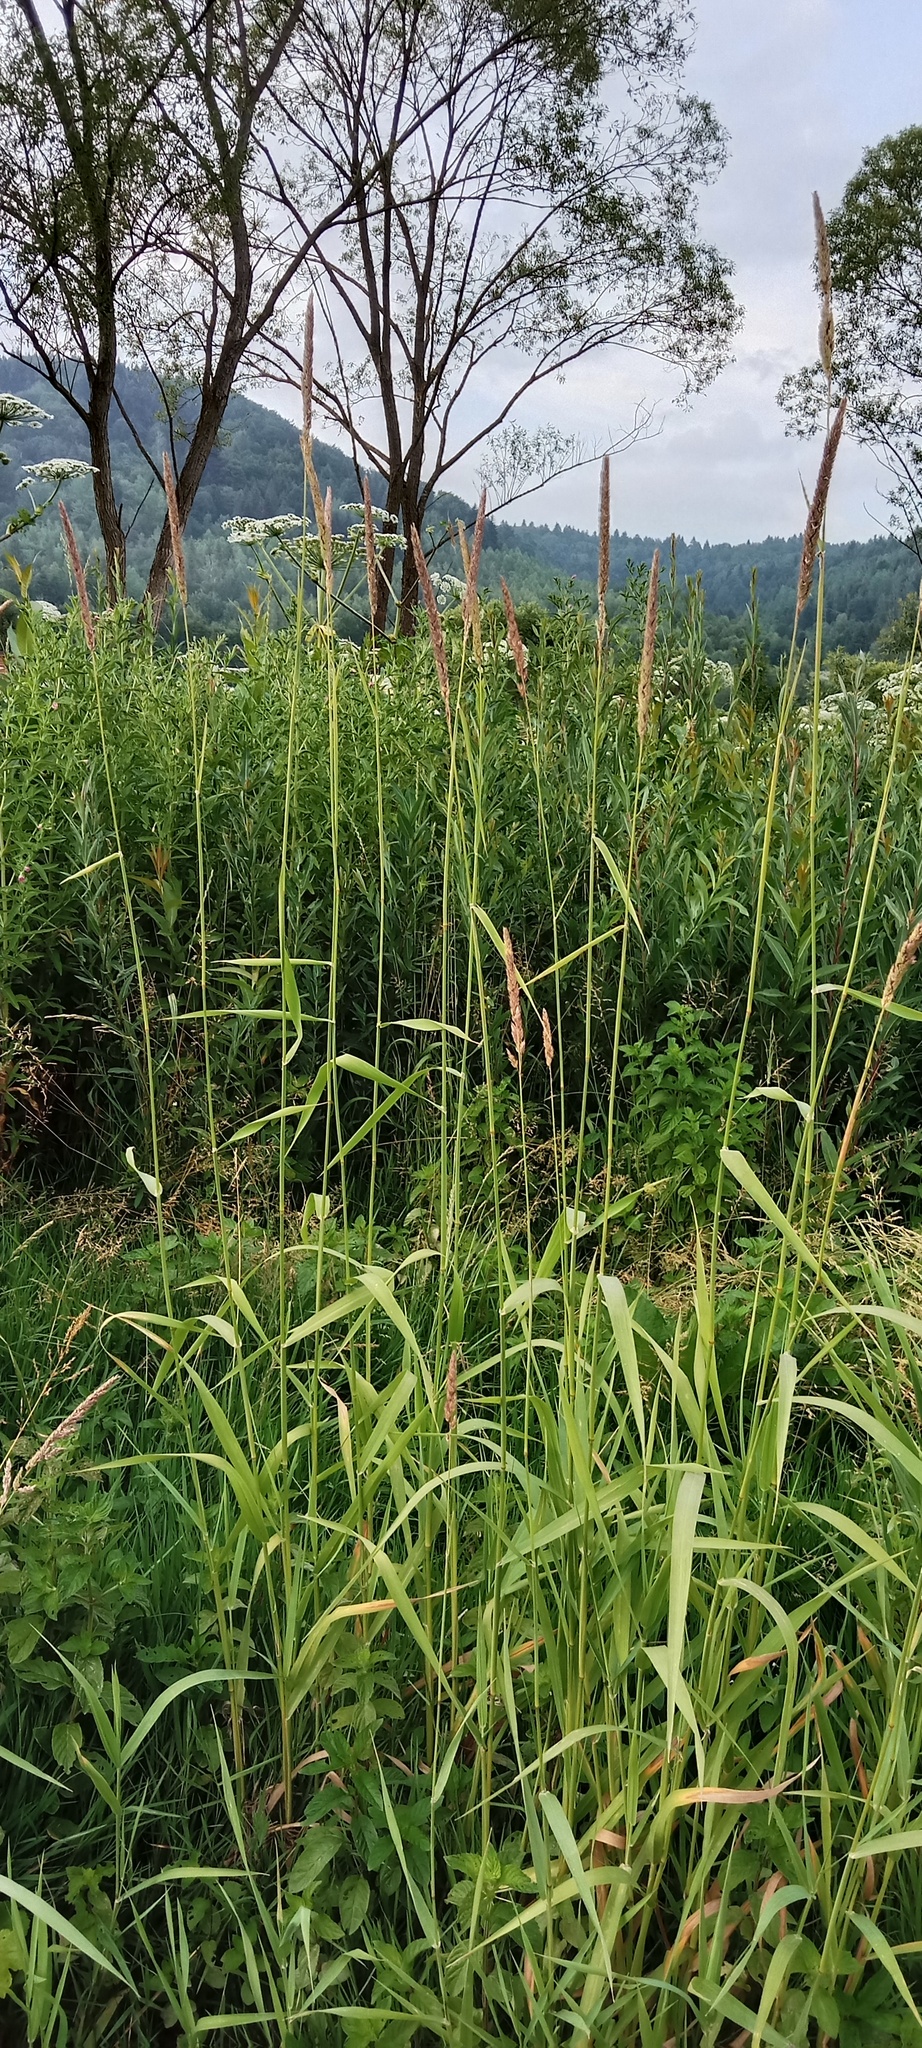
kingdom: Plantae
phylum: Tracheophyta
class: Liliopsida
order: Poales
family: Poaceae
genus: Phalaris
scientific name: Phalaris arundinacea
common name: Reed canary-grass
